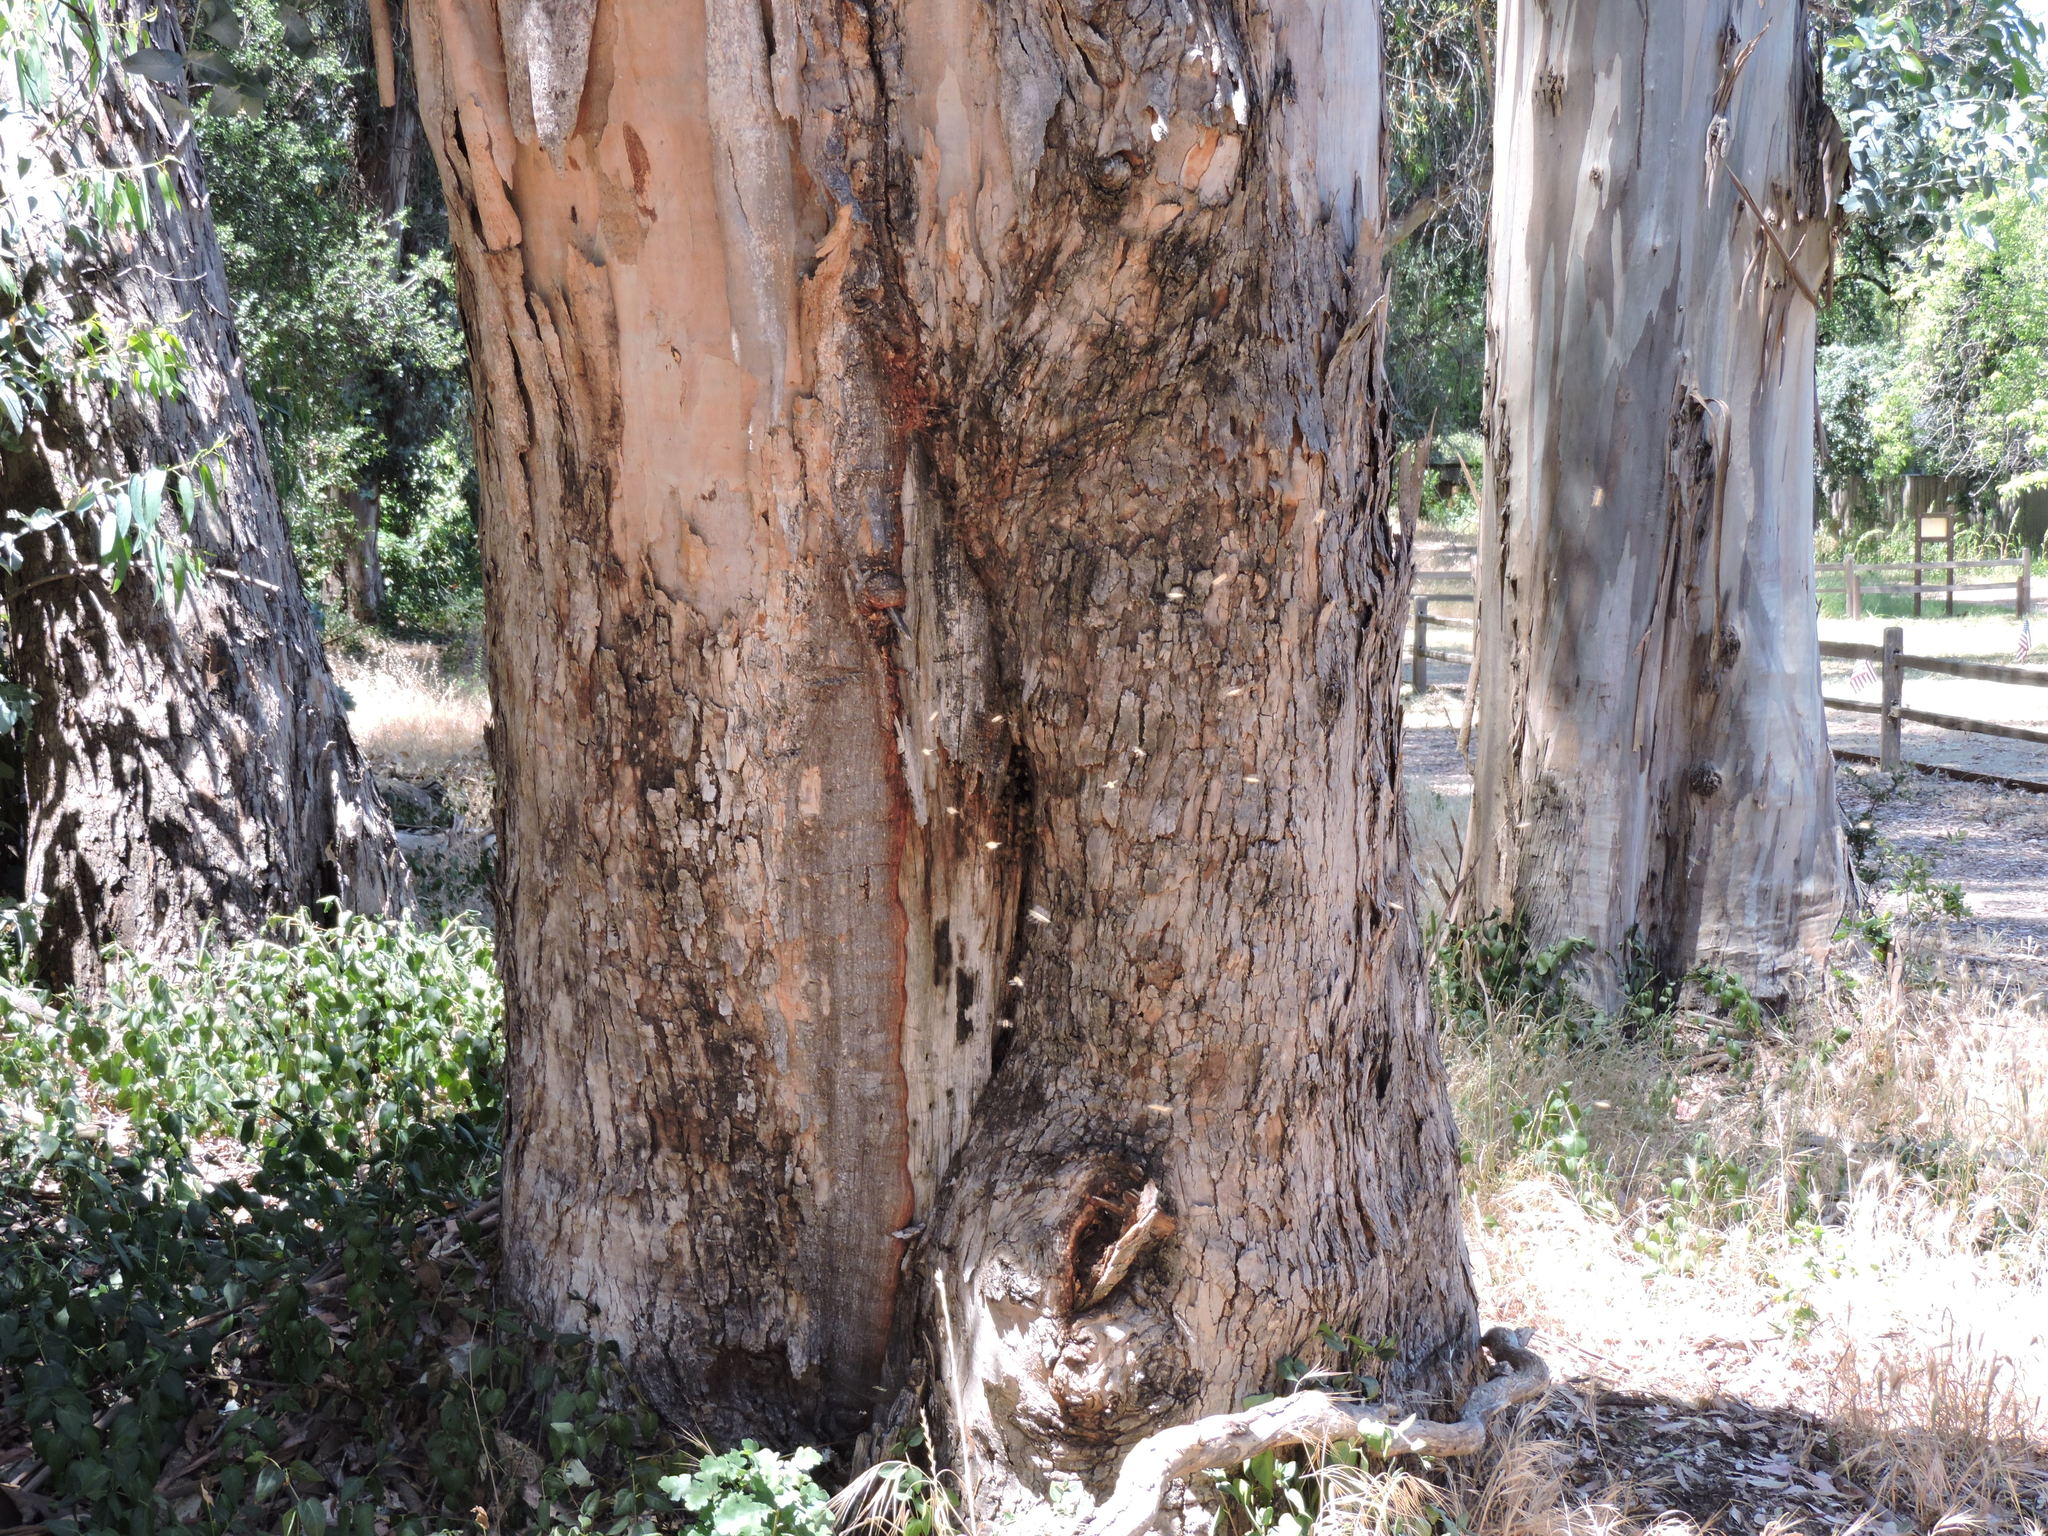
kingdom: Animalia
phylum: Arthropoda
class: Insecta
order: Hymenoptera
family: Apidae
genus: Apis
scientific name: Apis mellifera
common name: Honey bee
